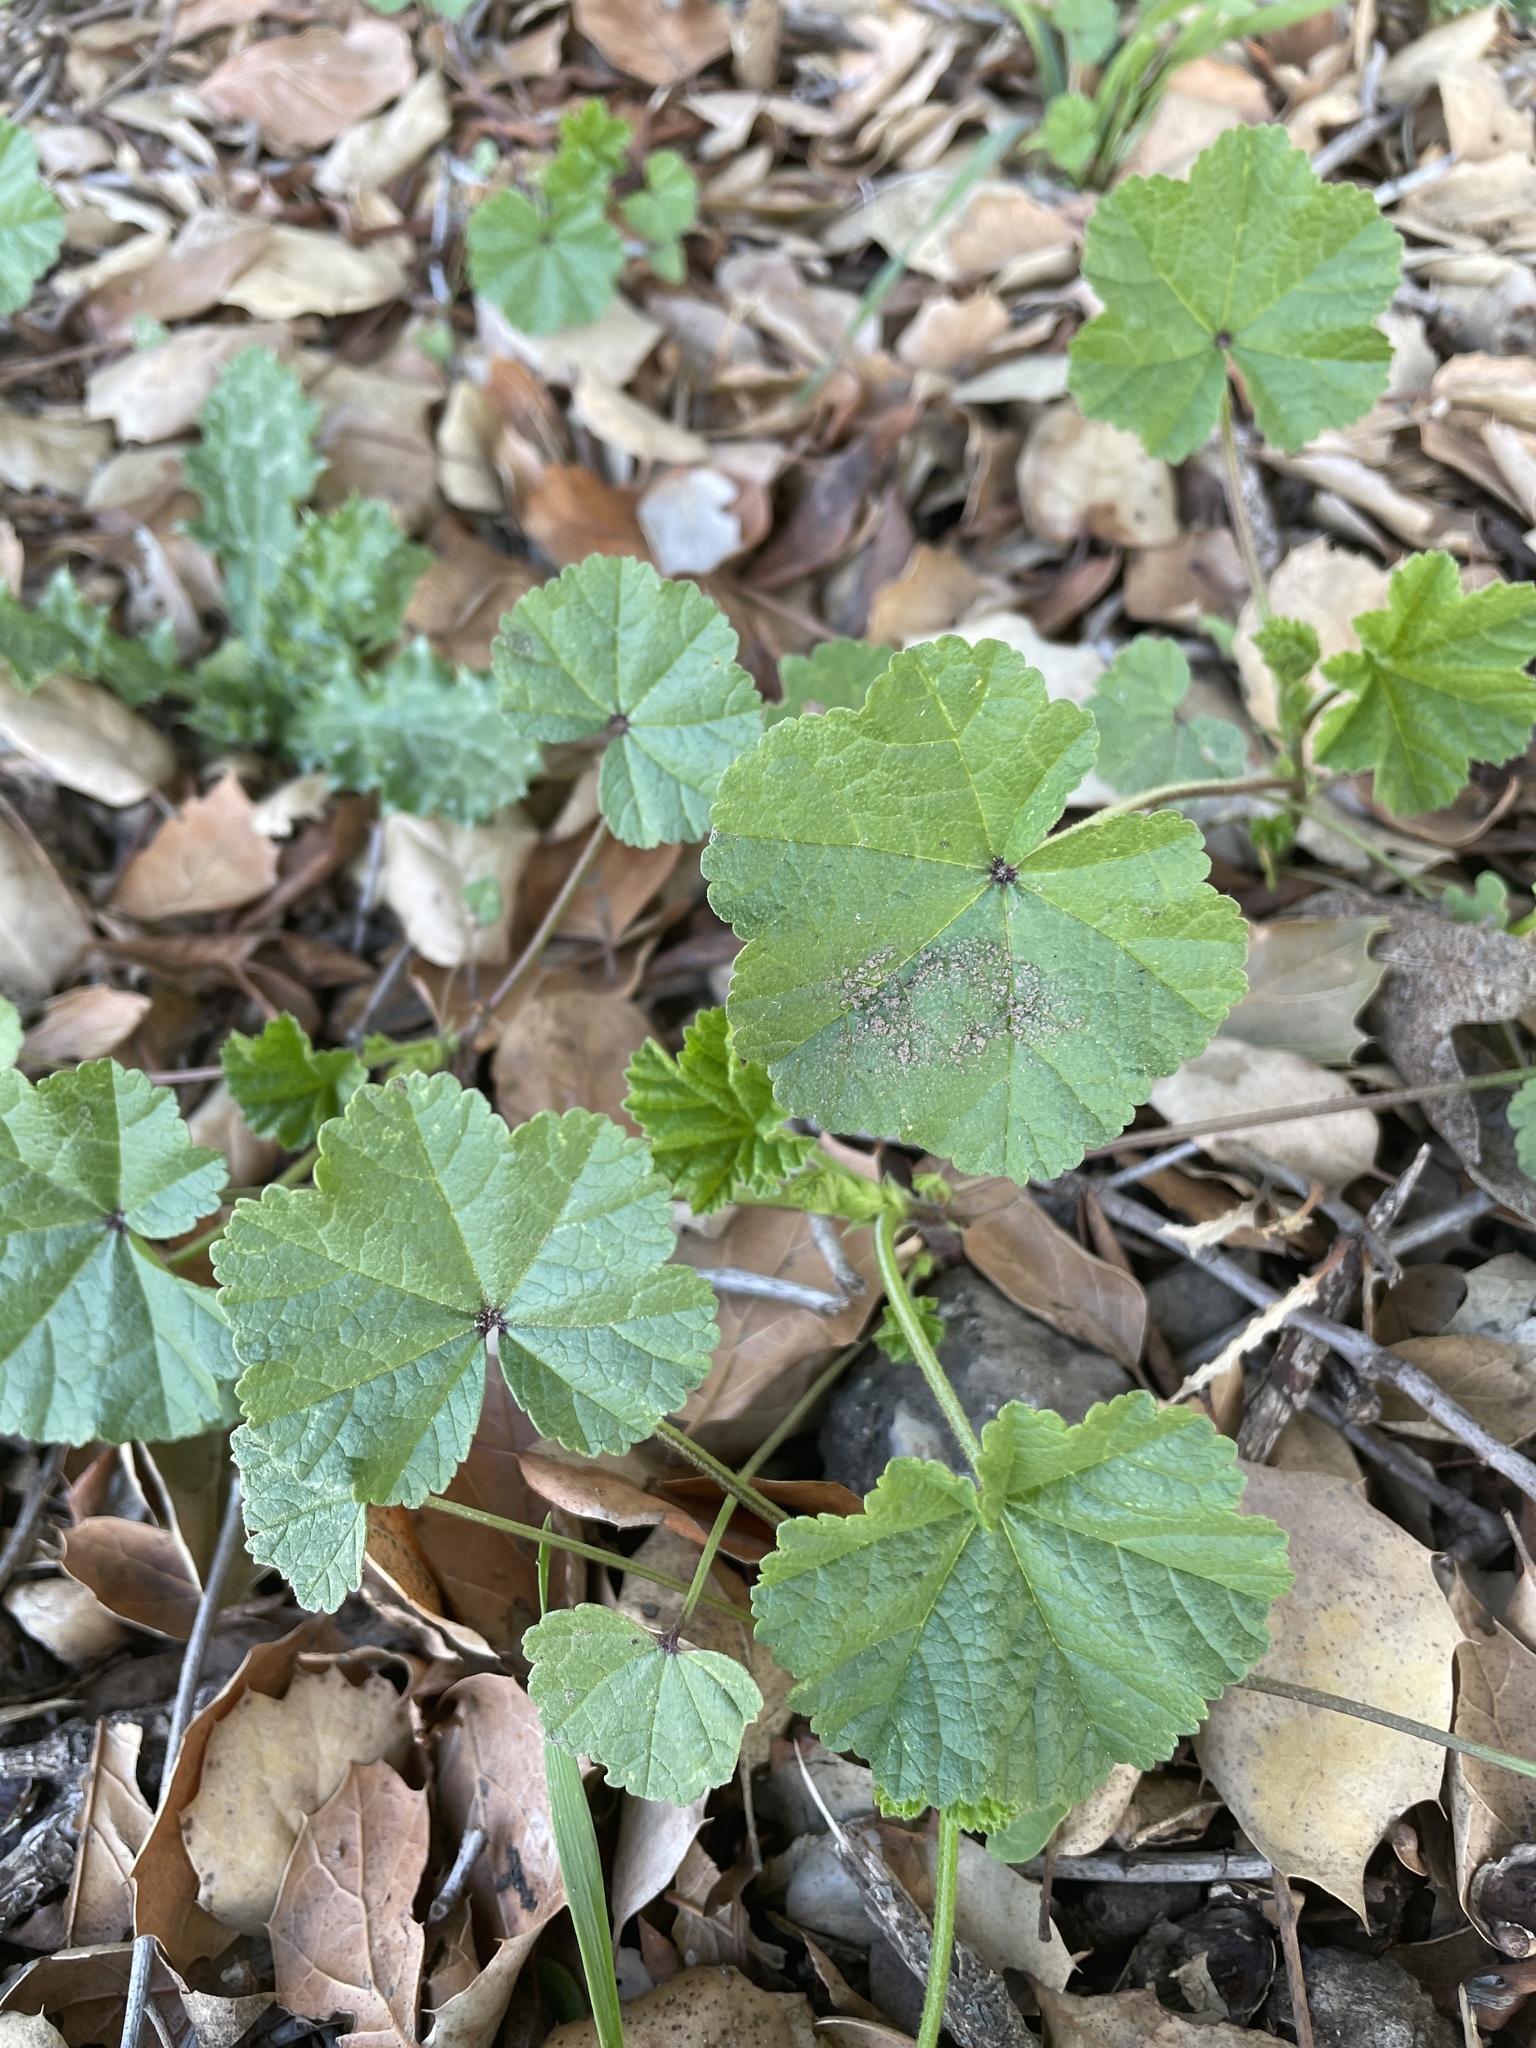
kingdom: Plantae
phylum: Tracheophyta
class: Magnoliopsida
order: Malvales
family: Malvaceae
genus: Malva
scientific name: Malva
